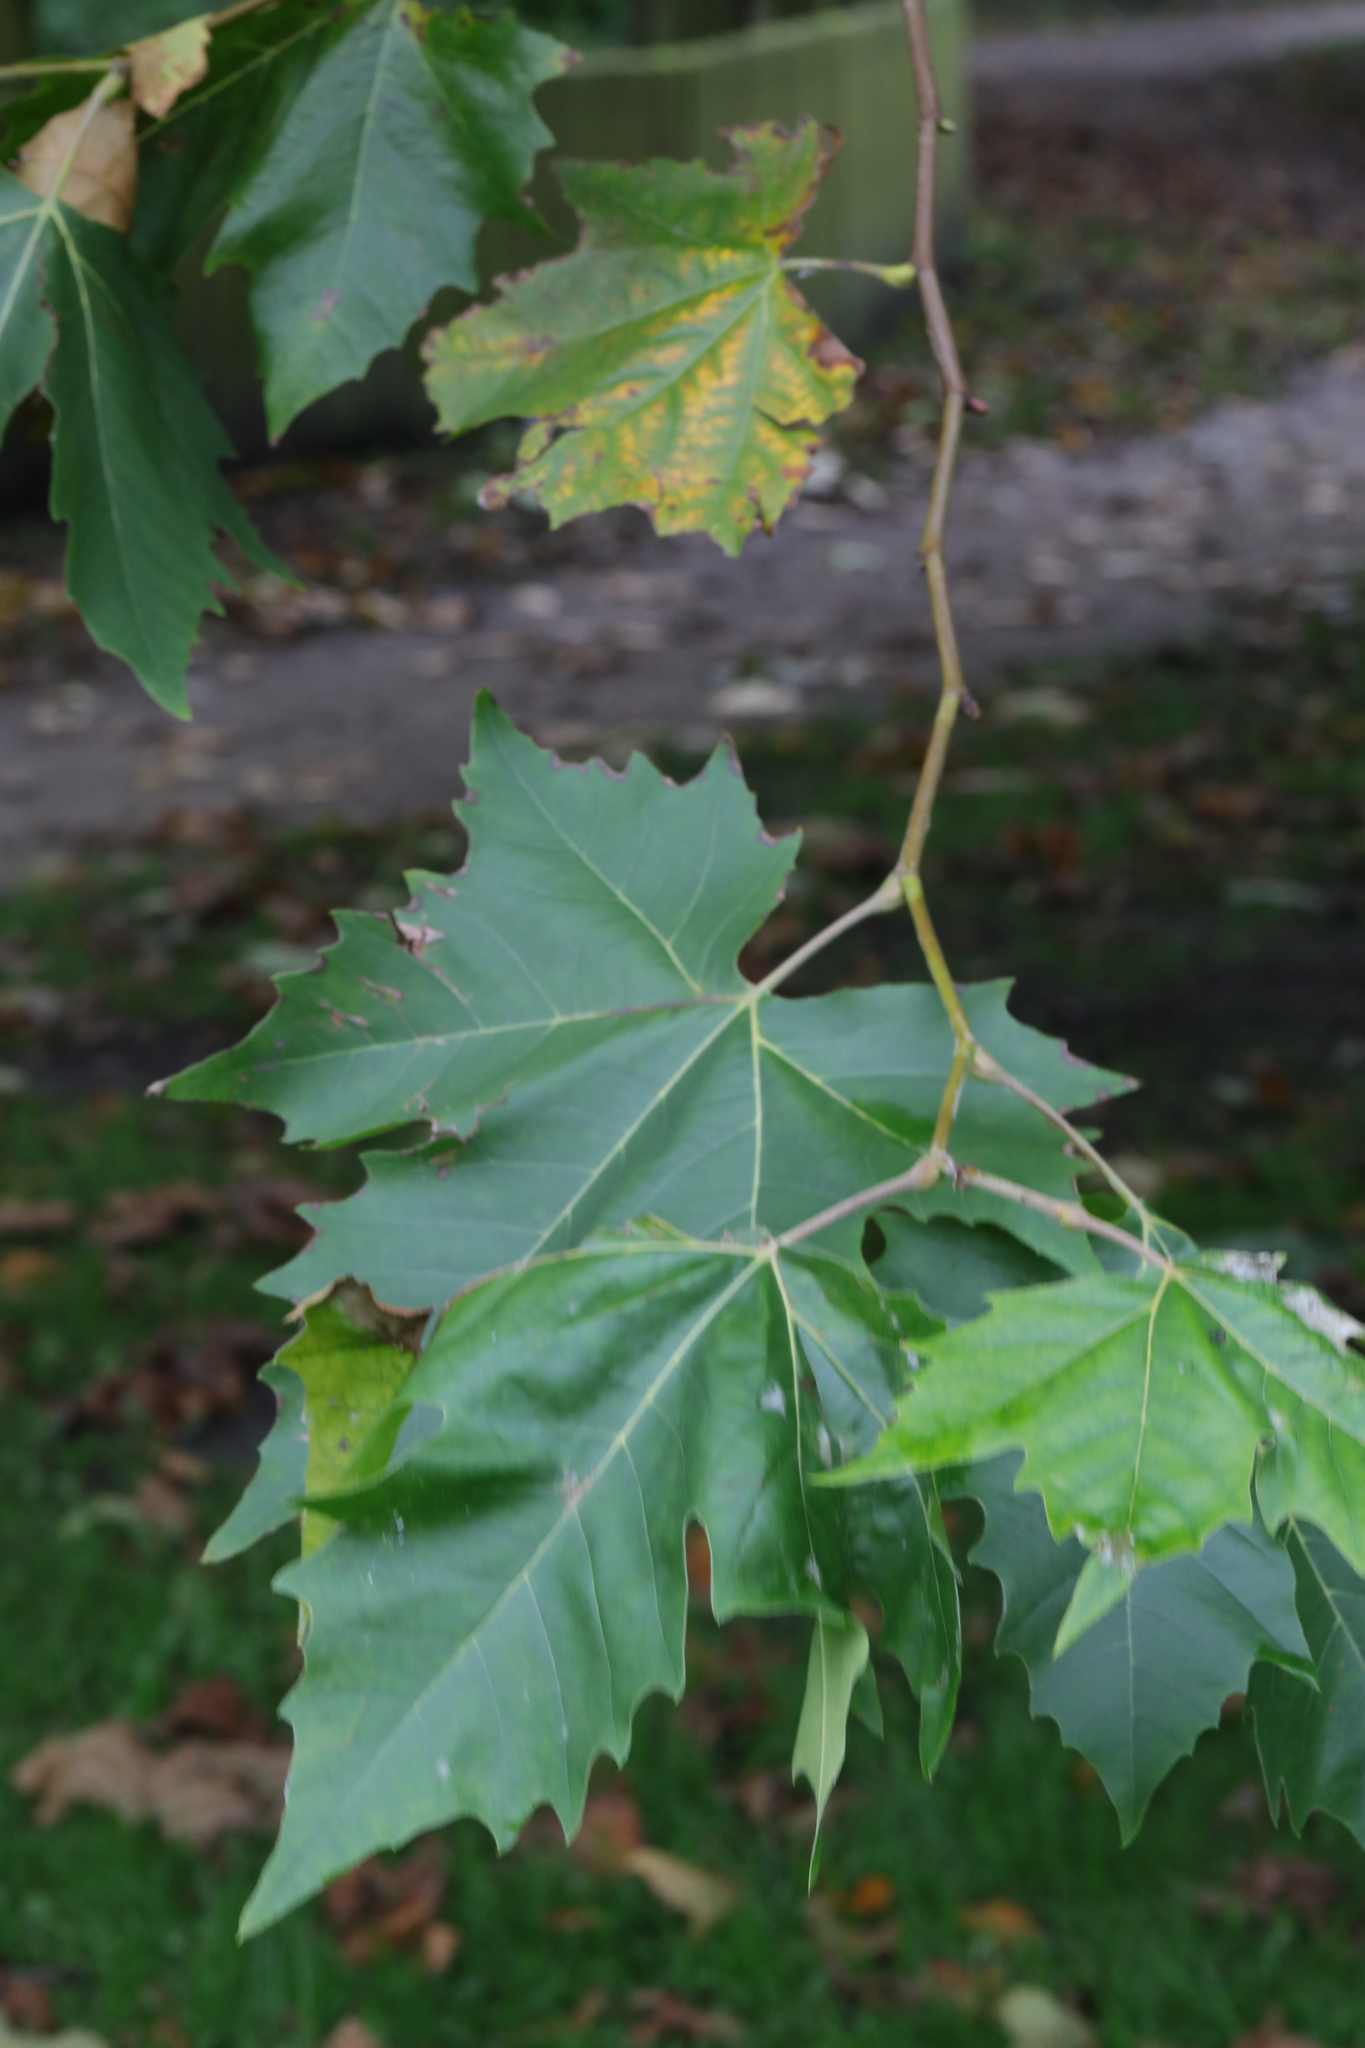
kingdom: Plantae
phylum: Tracheophyta
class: Magnoliopsida
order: Proteales
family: Platanaceae
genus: Platanus
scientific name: Platanus hispanica
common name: London plane
